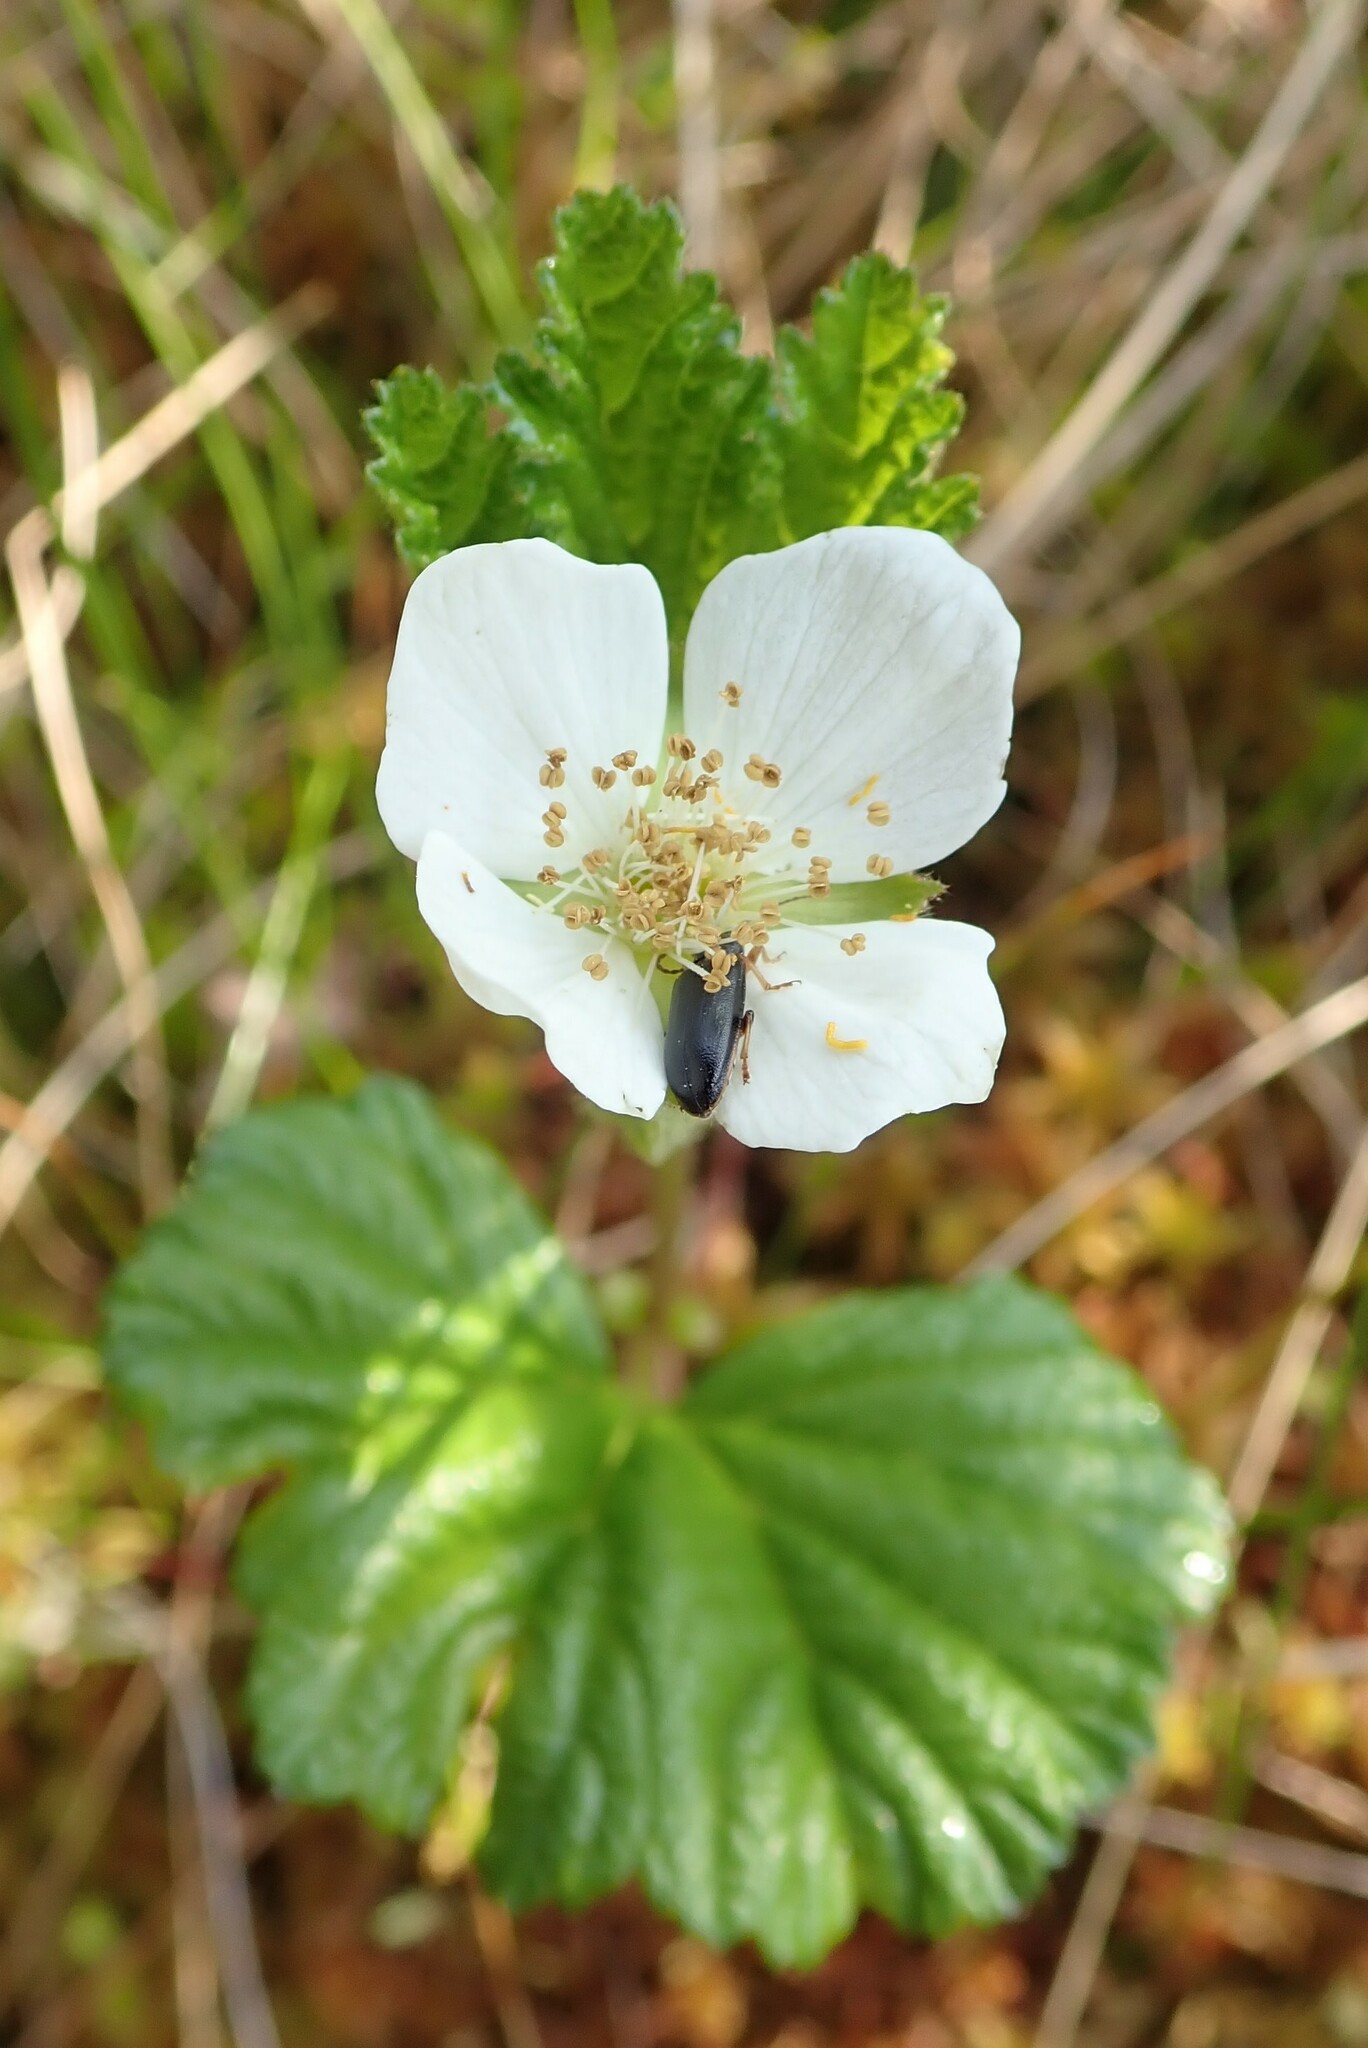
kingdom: Plantae
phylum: Tracheophyta
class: Magnoliopsida
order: Rosales
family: Rosaceae
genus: Rubus
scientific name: Rubus chamaemorus
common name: Cloudberry
